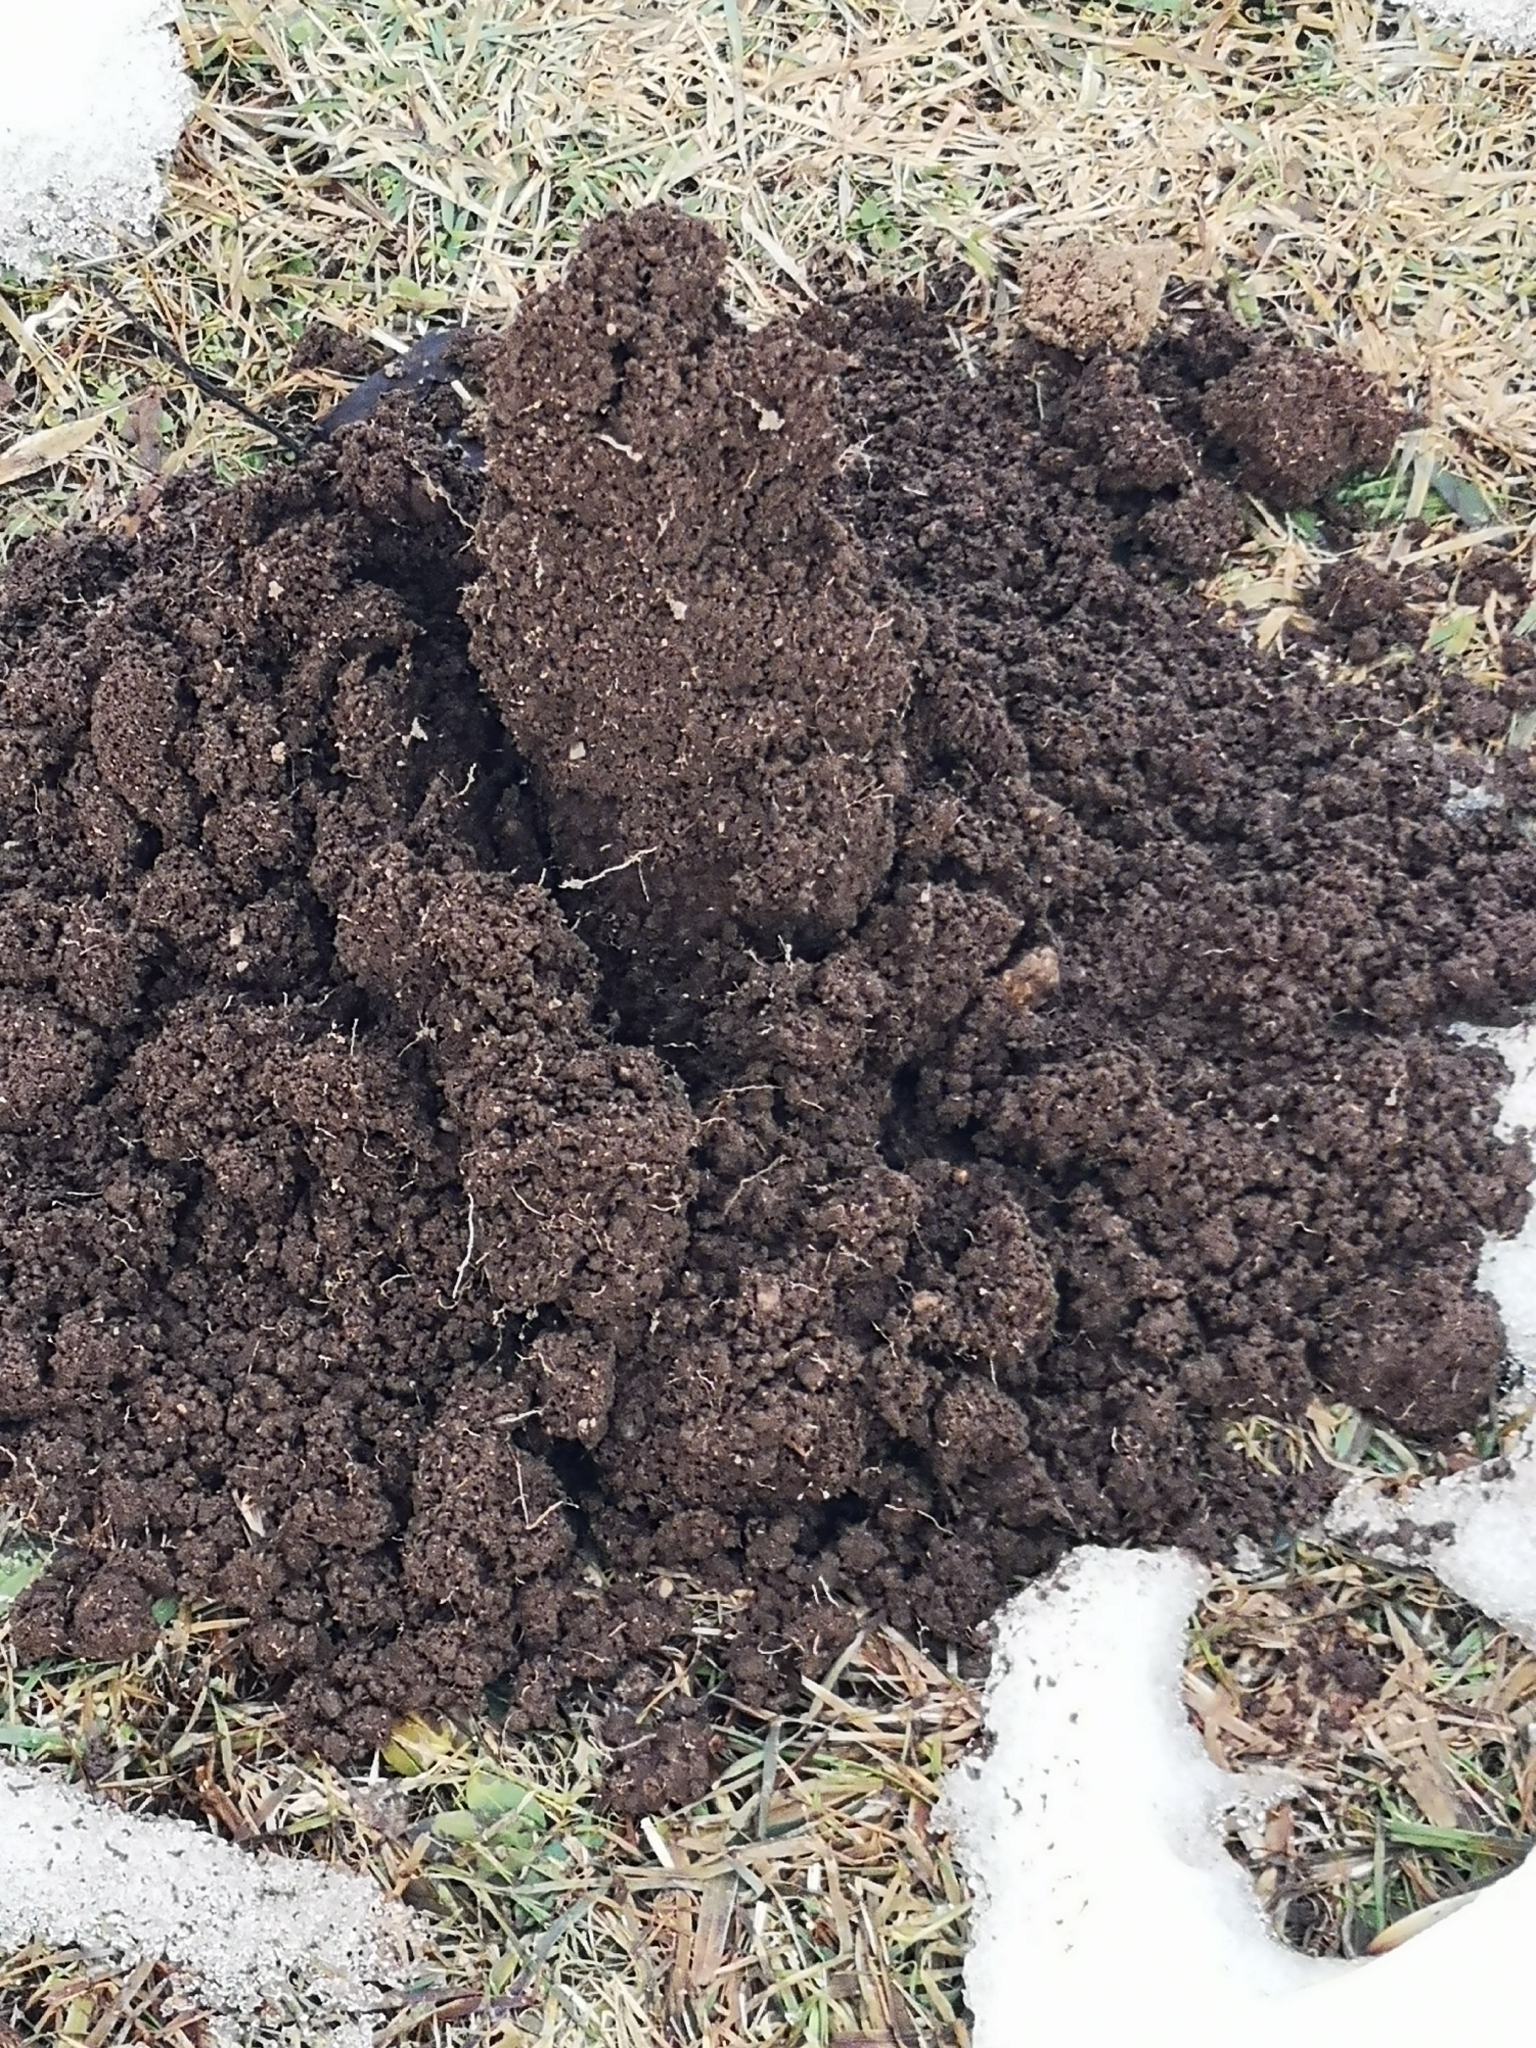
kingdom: Animalia
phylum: Chordata
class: Mammalia
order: Soricomorpha
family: Talpidae
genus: Talpa
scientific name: Talpa europaea
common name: European mole
